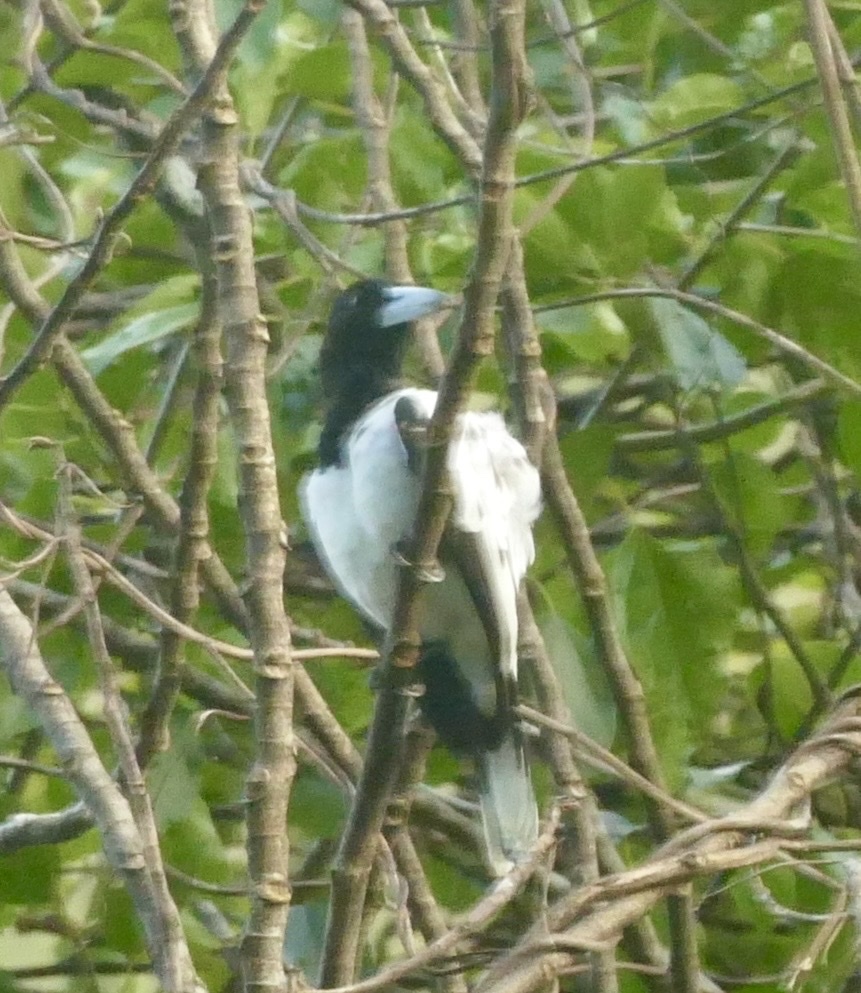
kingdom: Animalia
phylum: Chordata
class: Aves
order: Passeriformes
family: Cracticidae
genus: Cracticus
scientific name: Cracticus cassicus
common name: Hooded butcherbird
